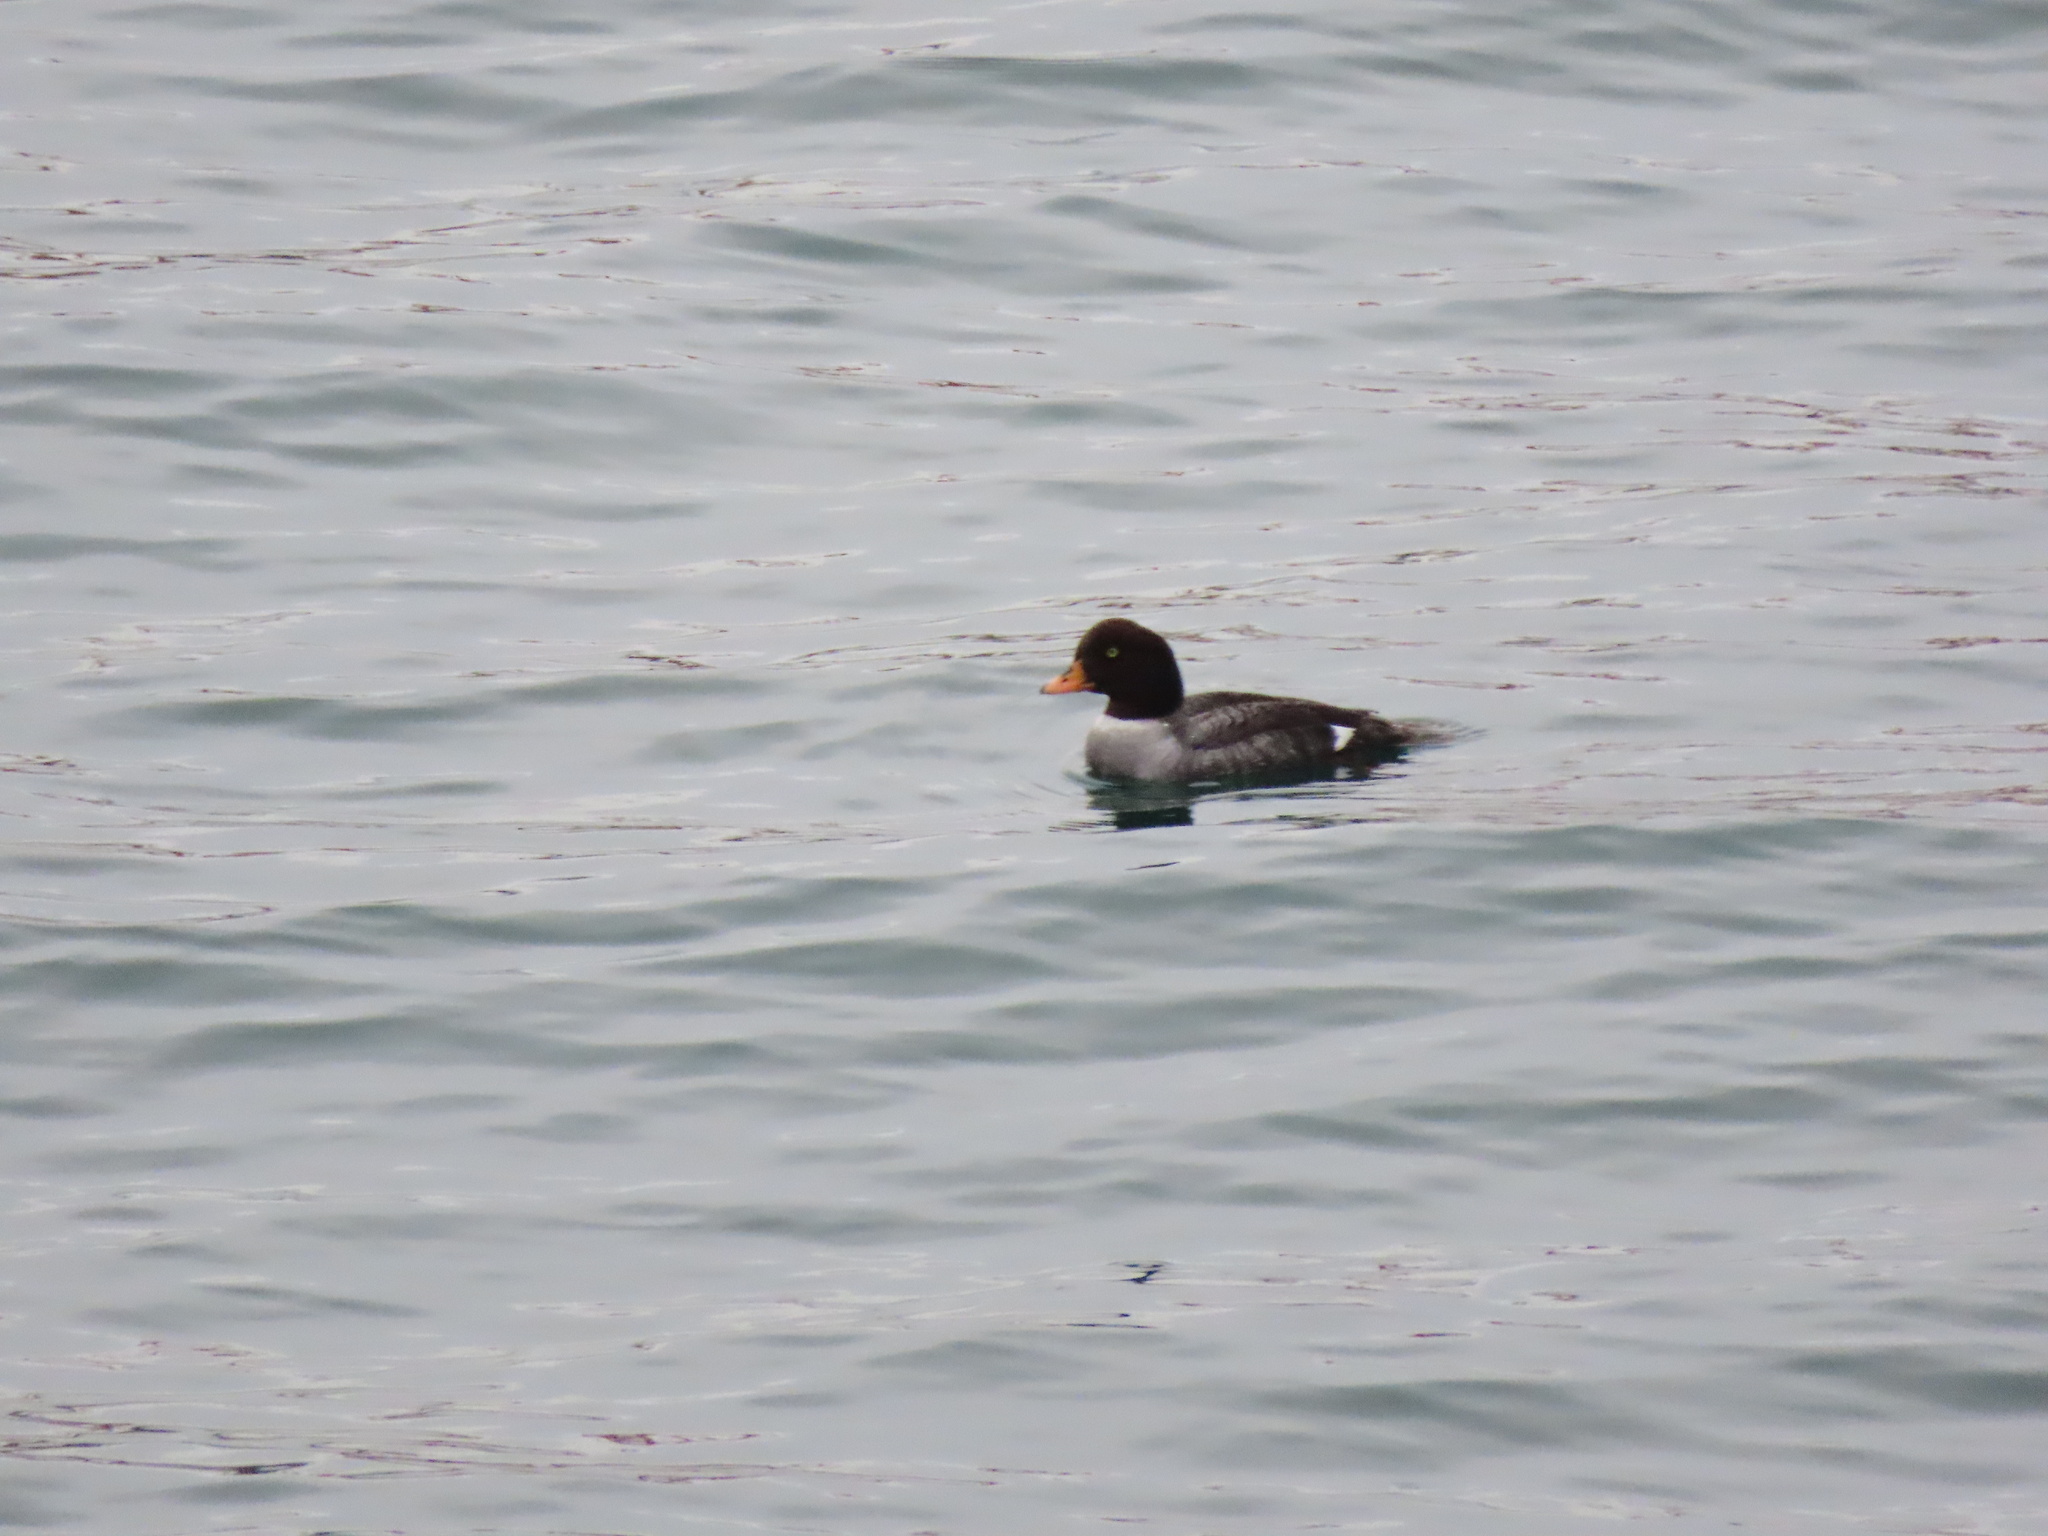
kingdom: Animalia
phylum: Chordata
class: Aves
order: Anseriformes
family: Anatidae
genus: Bucephala
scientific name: Bucephala islandica
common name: Barrow's goldeneye
